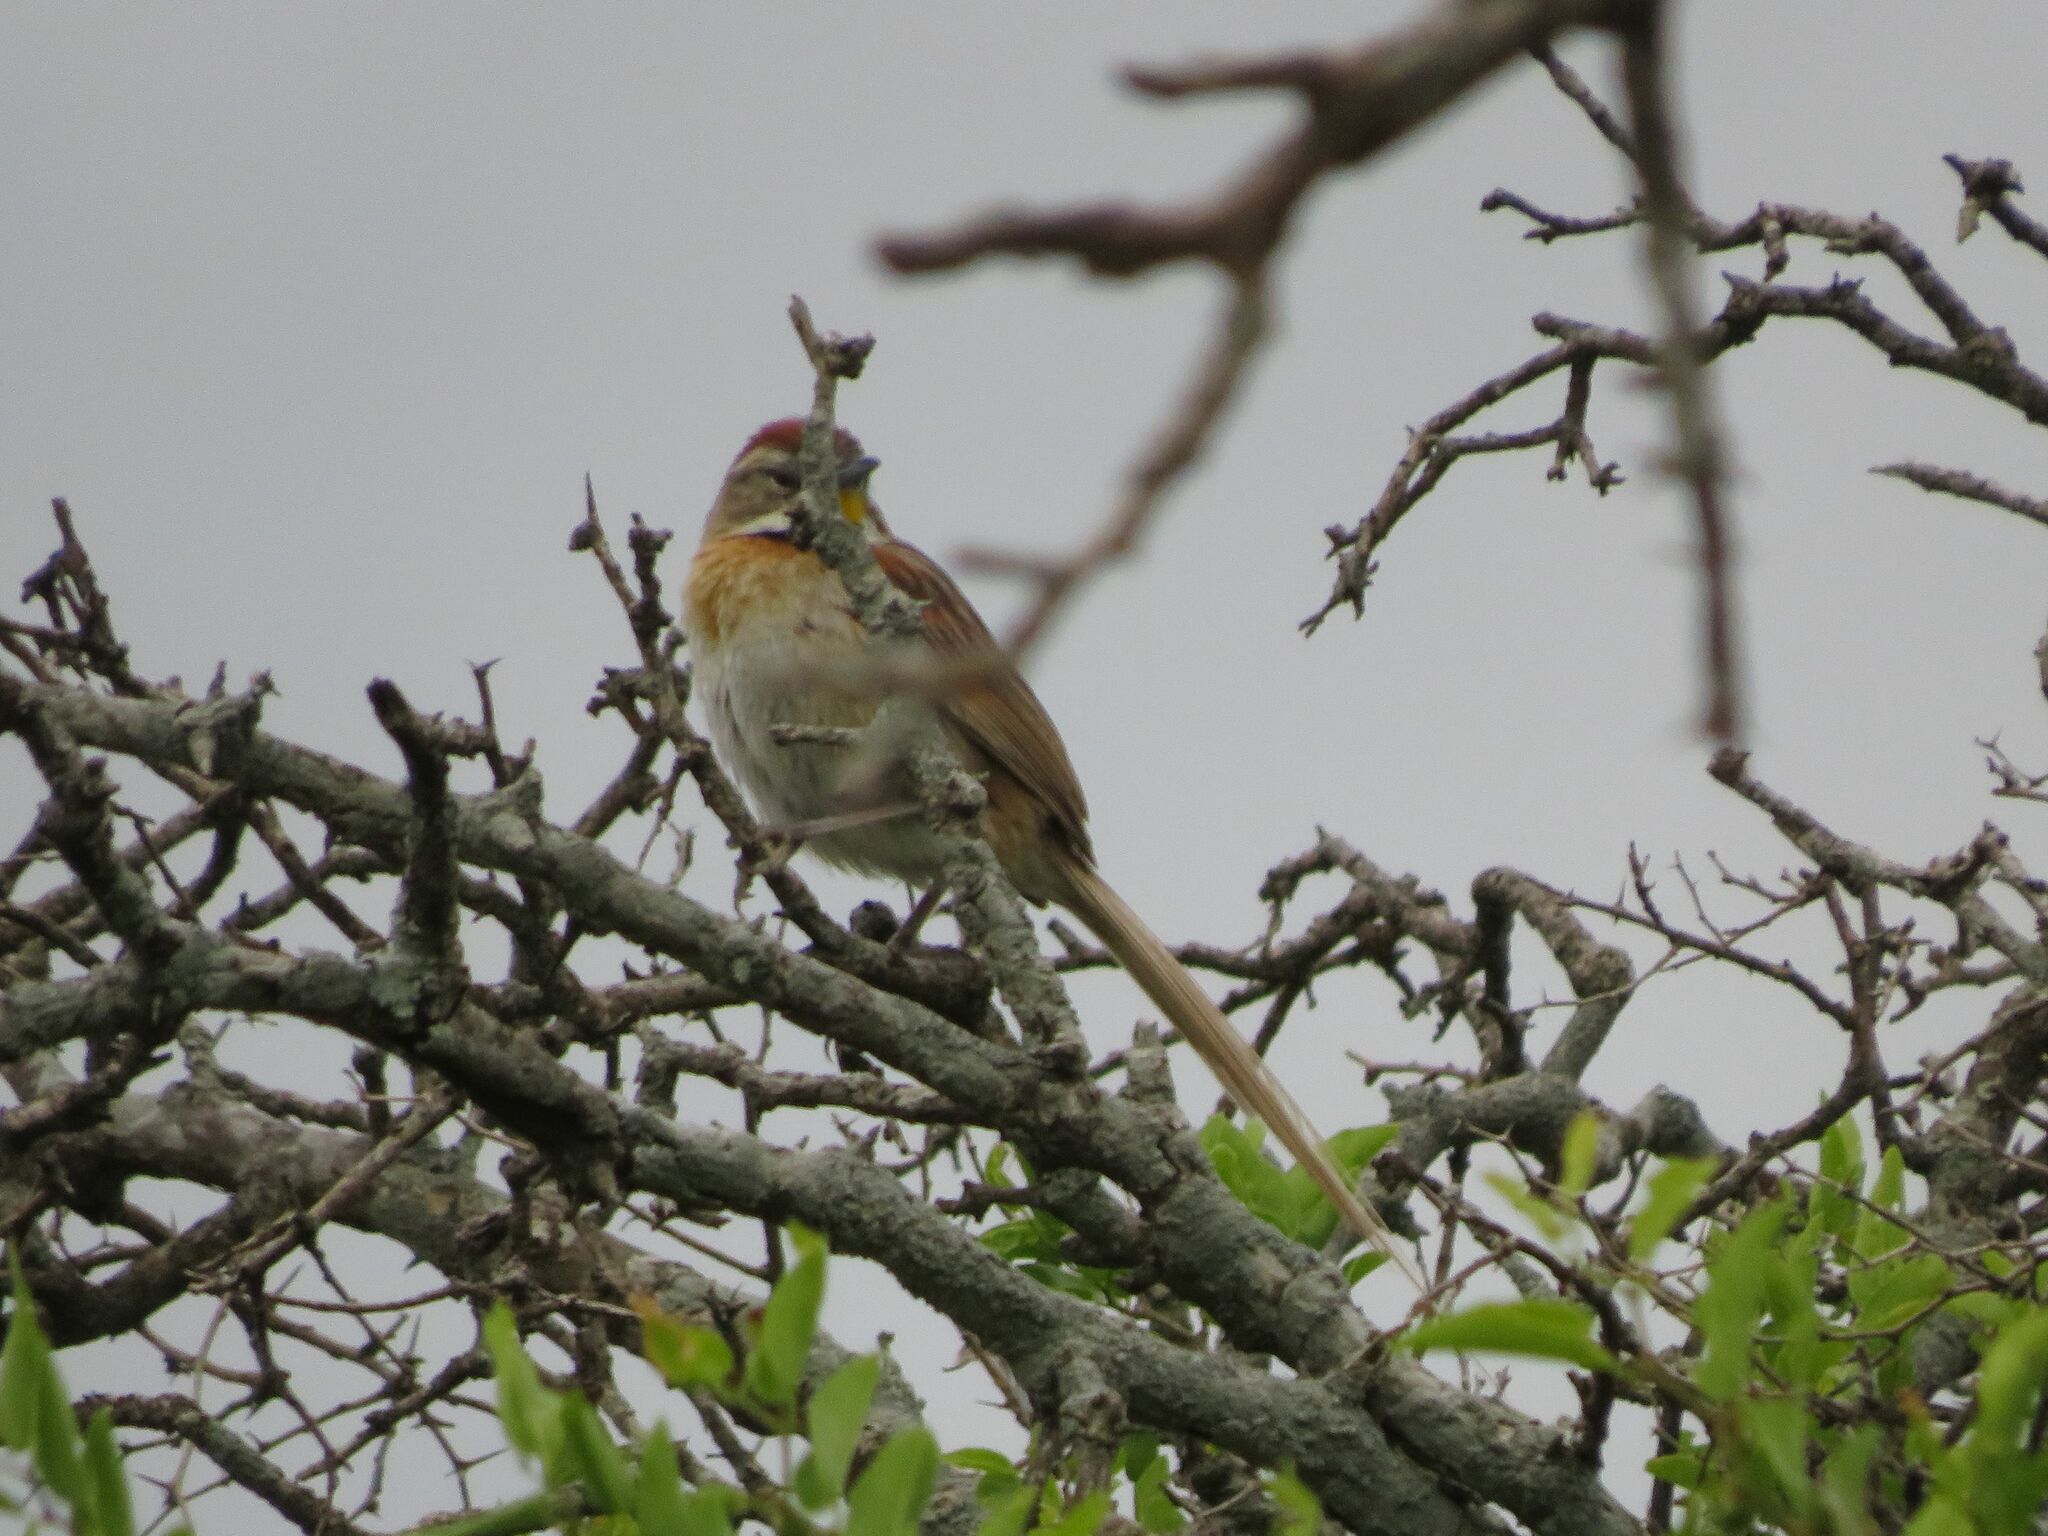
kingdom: Animalia
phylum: Chordata
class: Aves
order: Passeriformes
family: Furnariidae
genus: Schoeniophylax
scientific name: Schoeniophylax phryganophilus
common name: Chotoy spinetail
